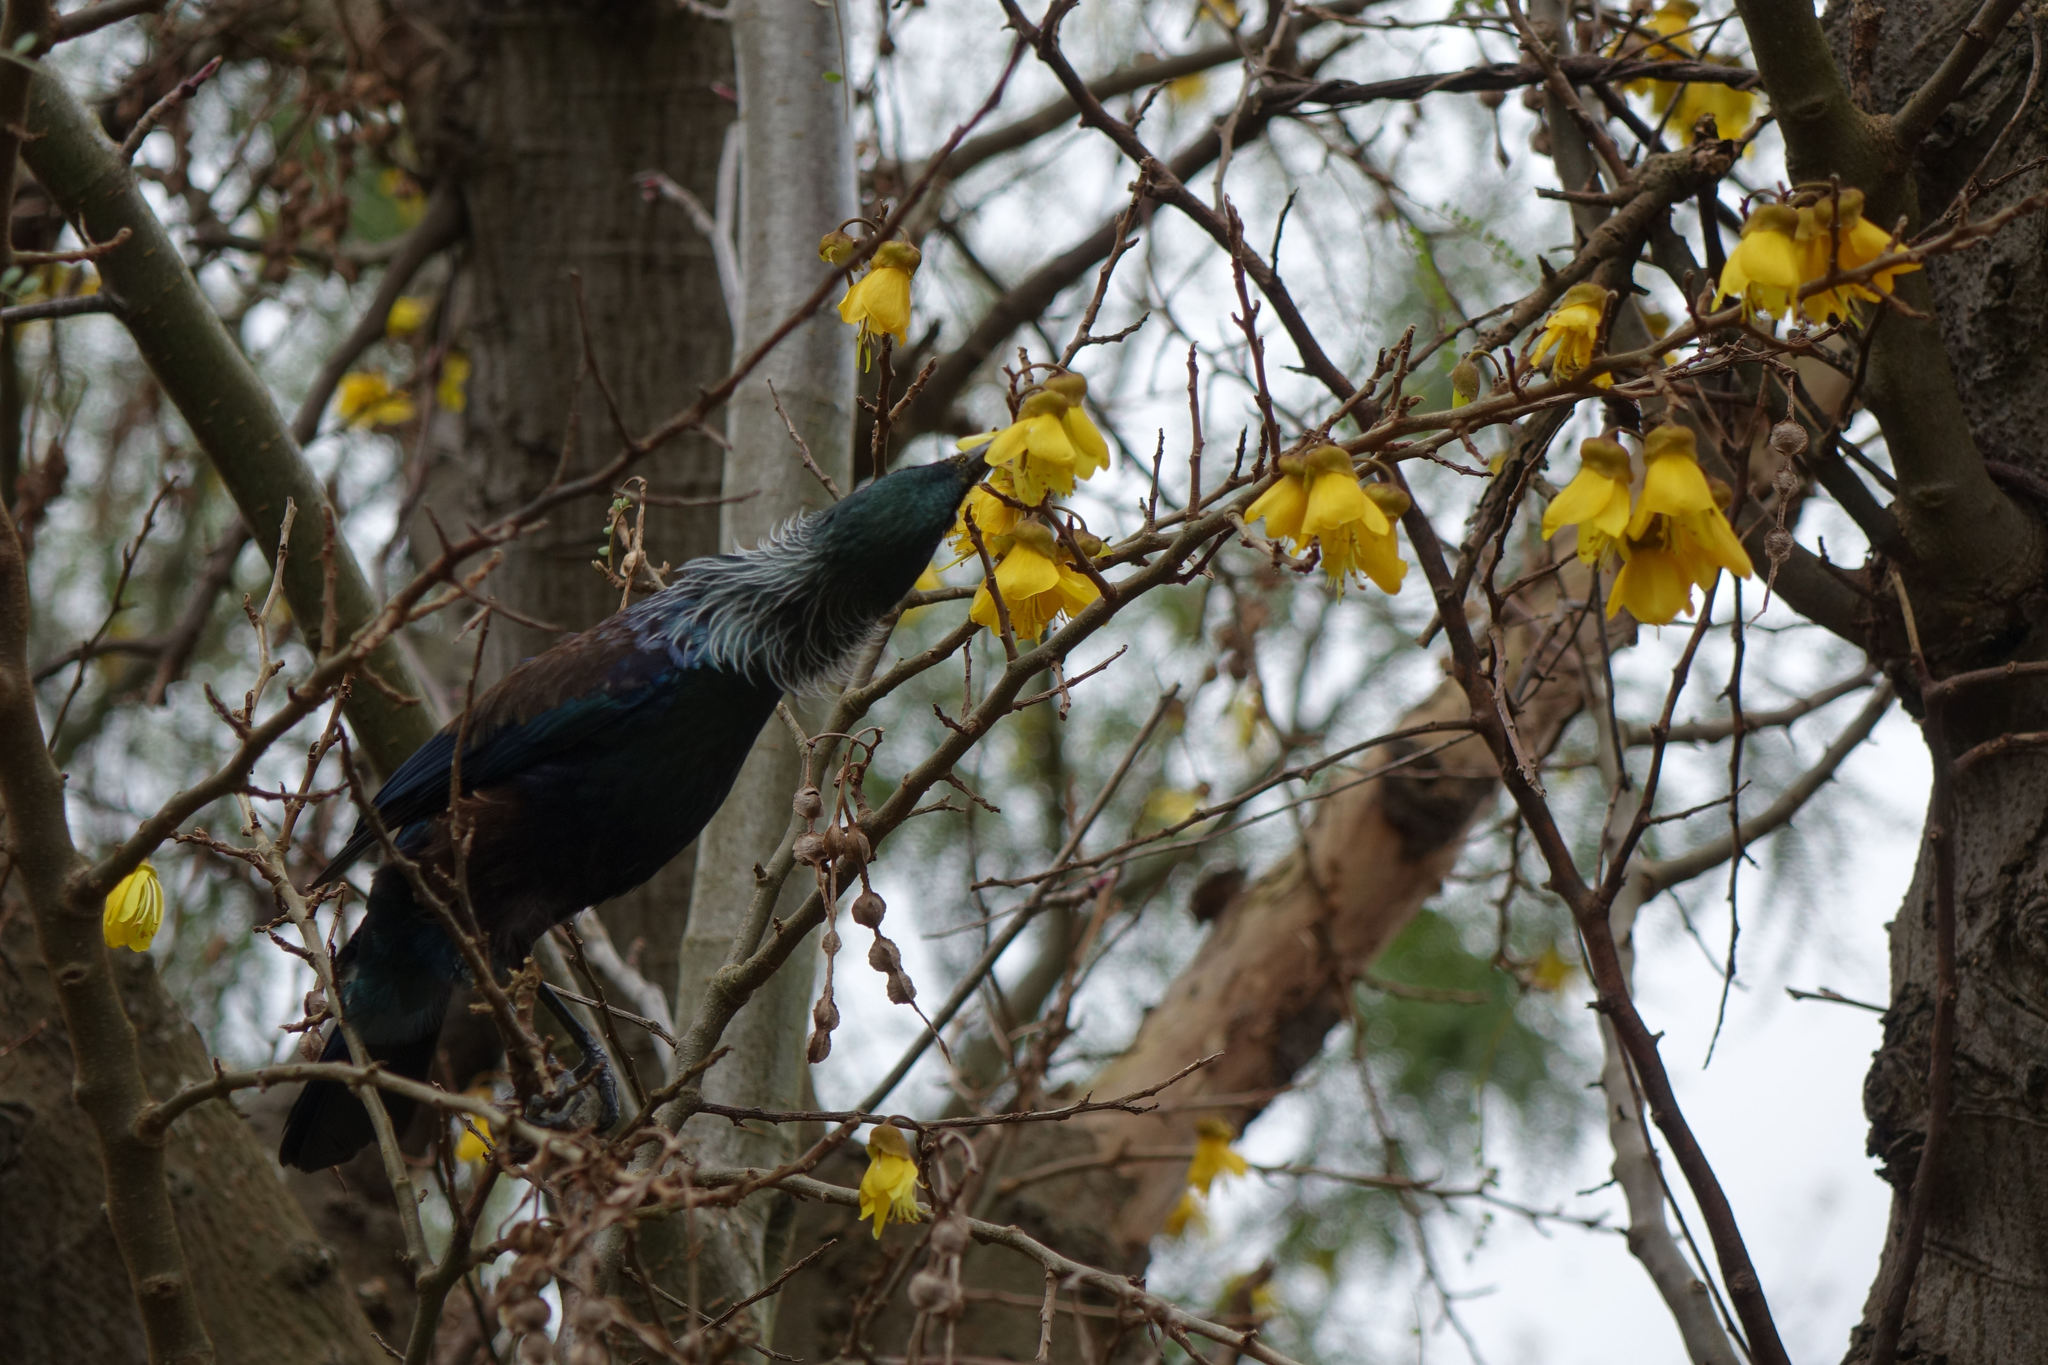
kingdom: Animalia
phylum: Chordata
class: Aves
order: Passeriformes
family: Meliphagidae
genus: Prosthemadera
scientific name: Prosthemadera novaeseelandiae
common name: Tui
